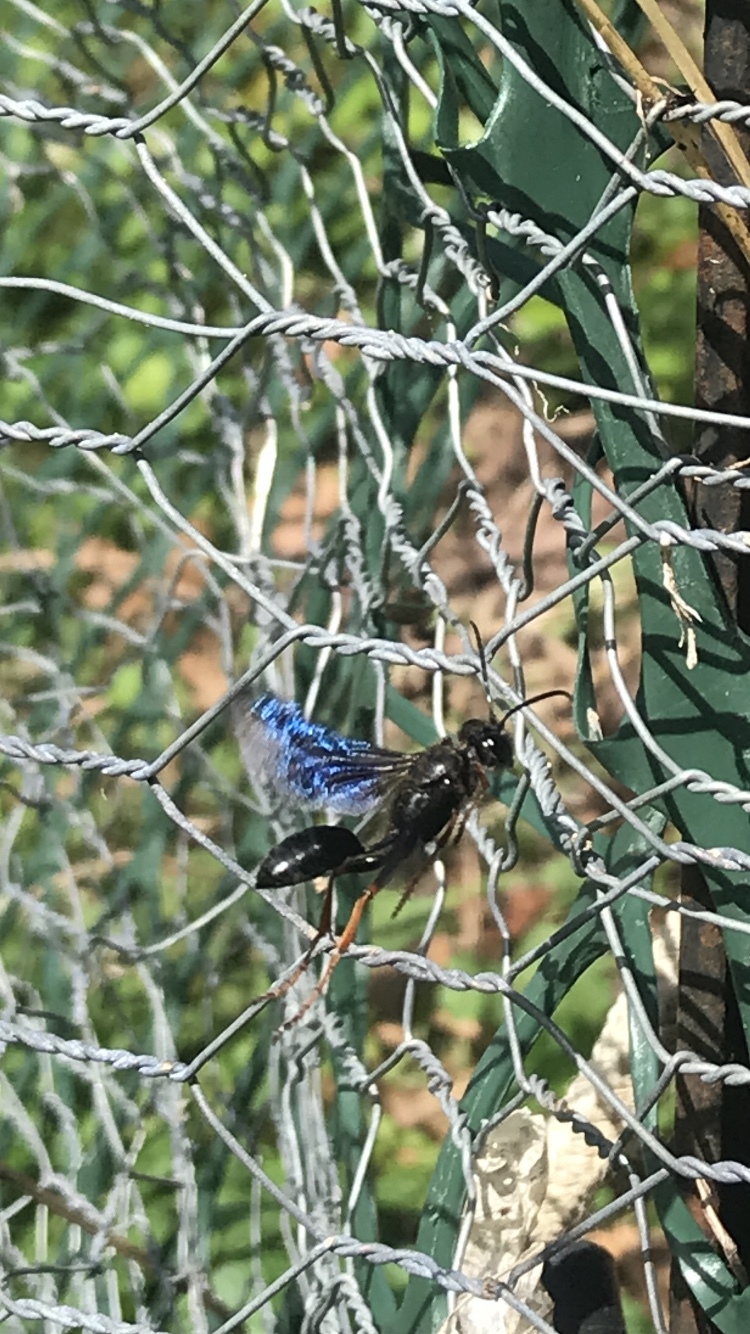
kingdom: Animalia
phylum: Arthropoda
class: Insecta
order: Hymenoptera
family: Sphecidae
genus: Isodontia
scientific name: Isodontia auripes
